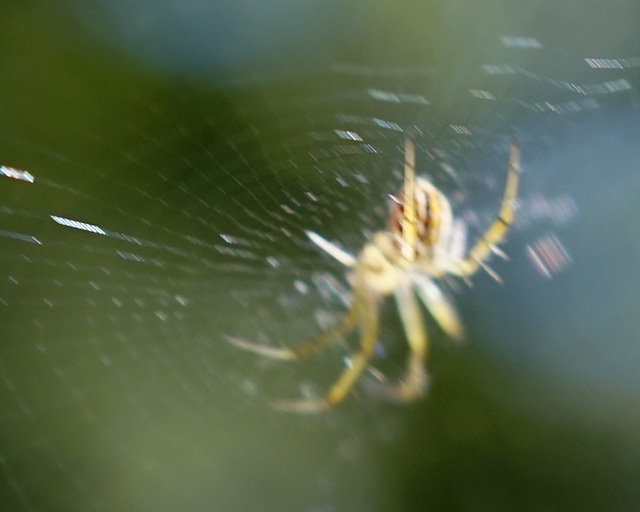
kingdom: Animalia
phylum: Arthropoda
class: Arachnida
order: Araneae
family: Araneidae
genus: Mangora
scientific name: Mangora gibberosa
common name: Lined orbweaver
